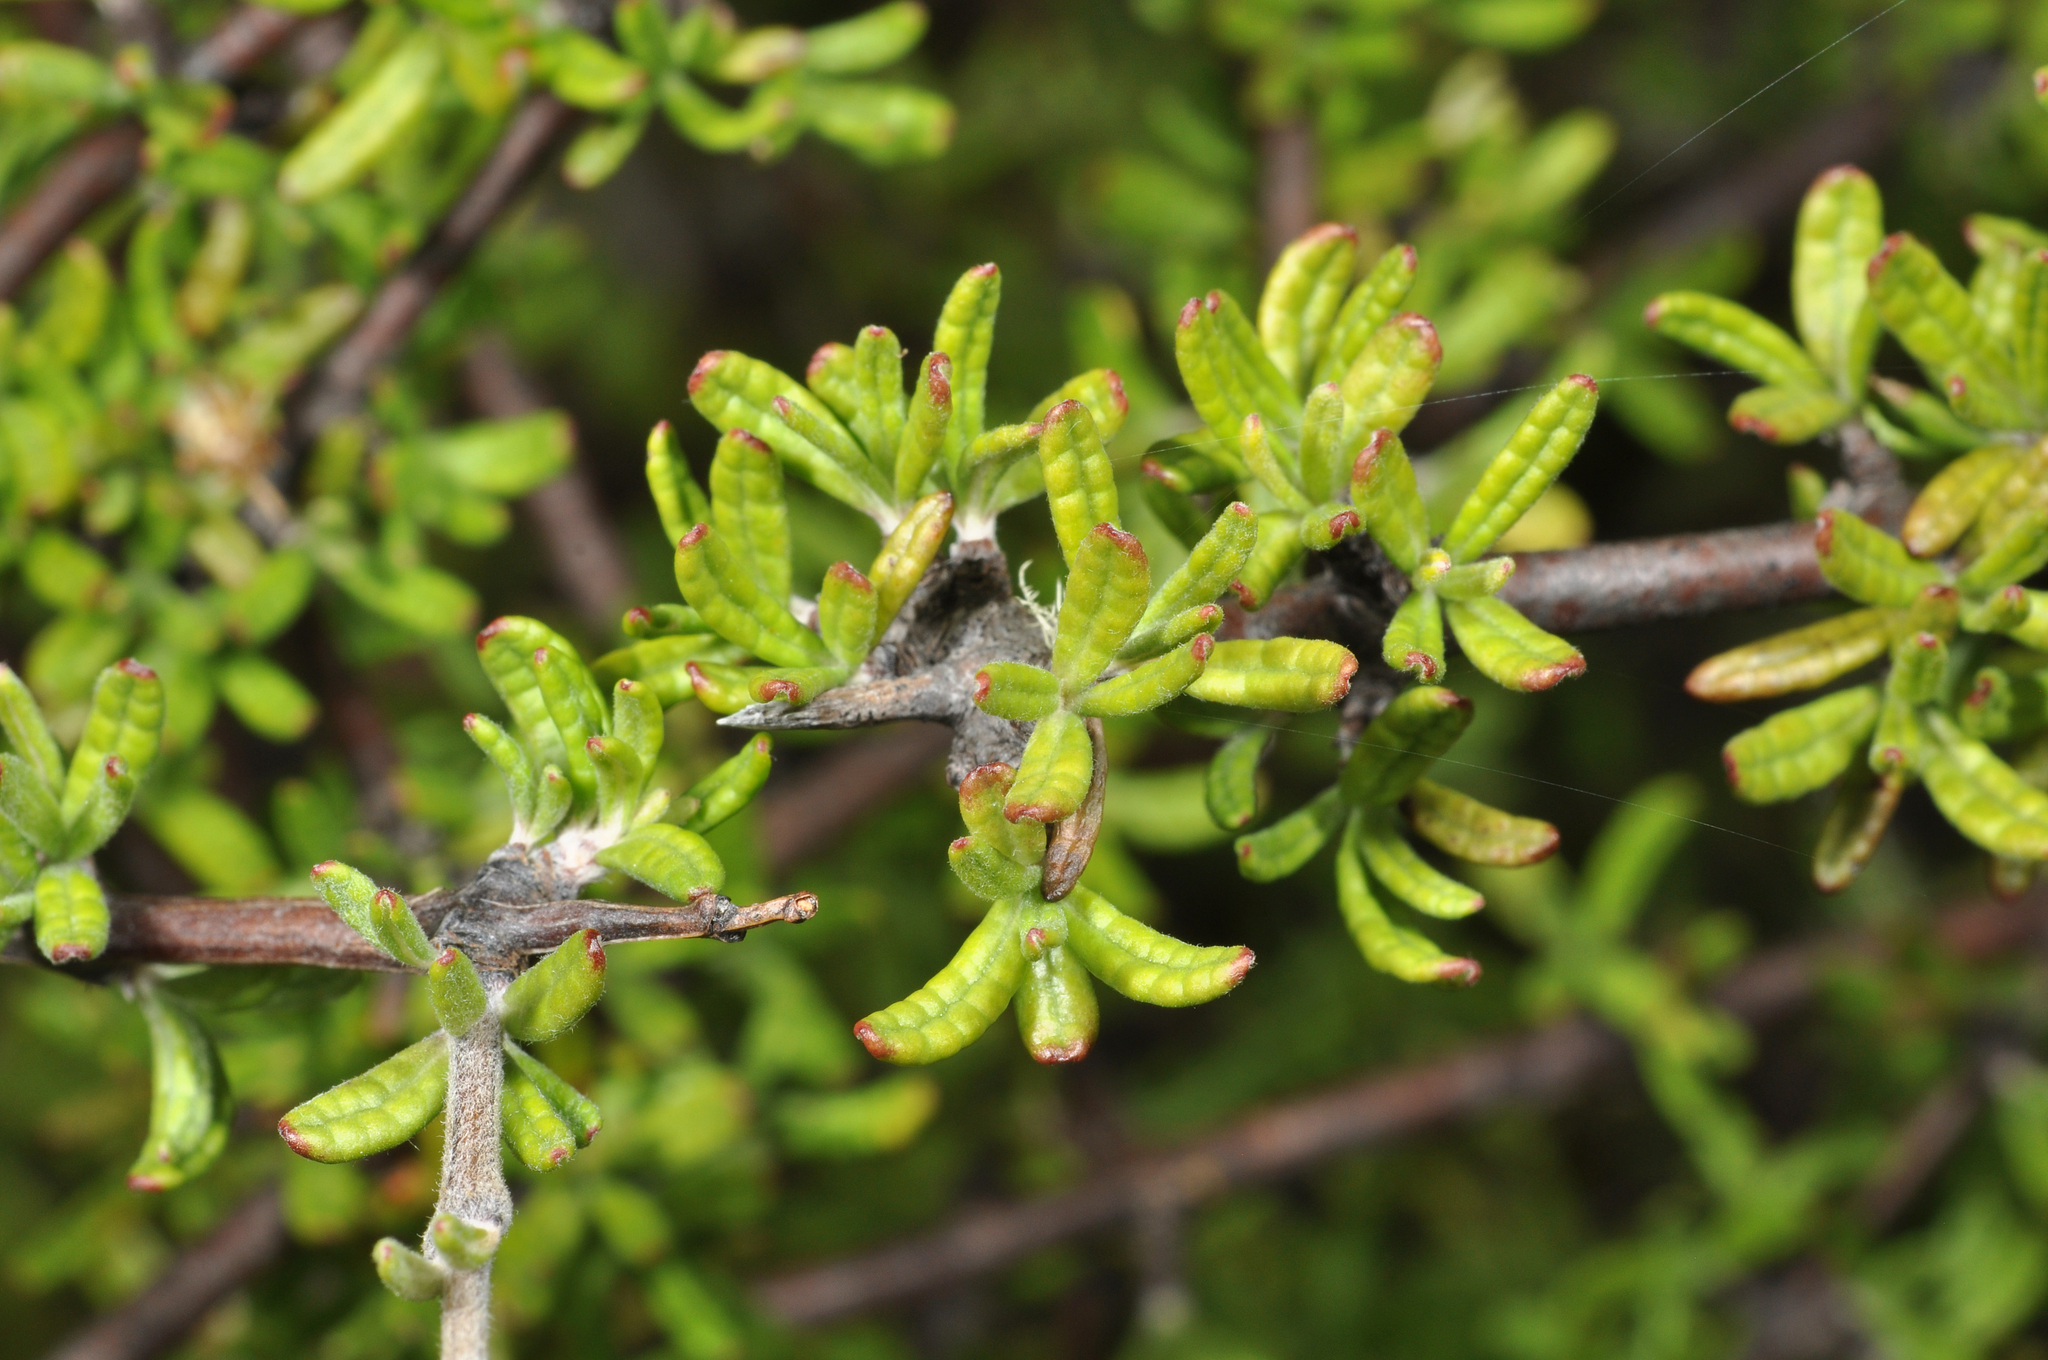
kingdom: Plantae
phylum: Tracheophyta
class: Magnoliopsida
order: Asterales
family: Asteraceae
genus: Olearia
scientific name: Olearia bullata
